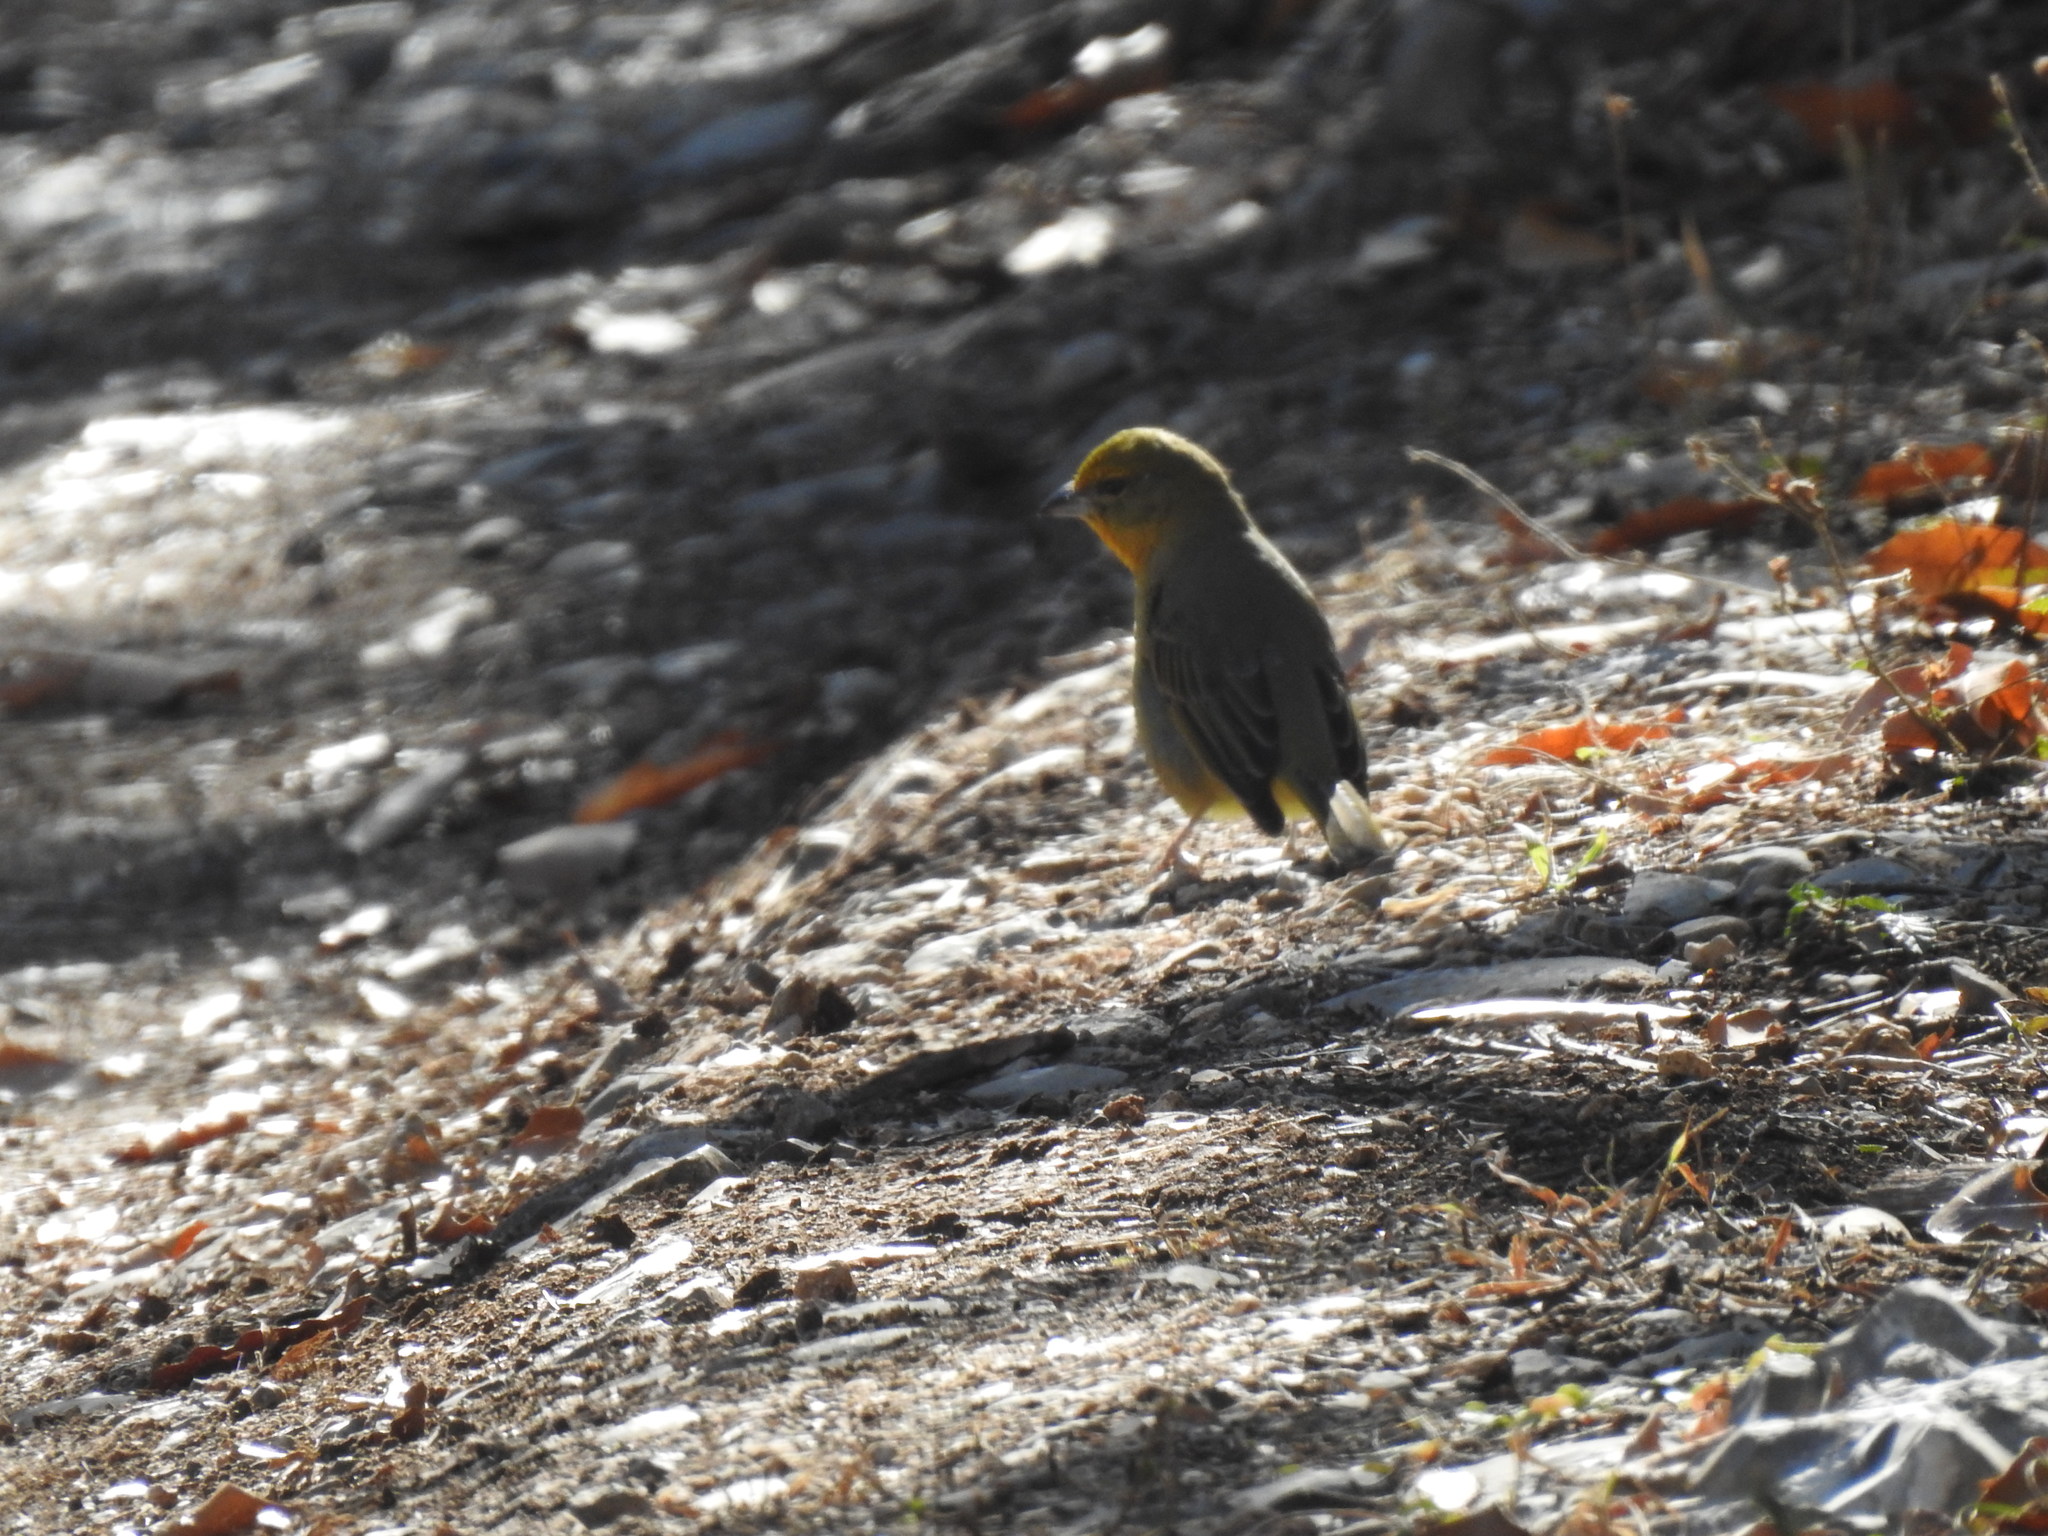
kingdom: Animalia
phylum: Chordata
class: Aves
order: Passeriformes
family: Cardinalidae
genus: Piranga
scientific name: Piranga flava
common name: Red tanager
